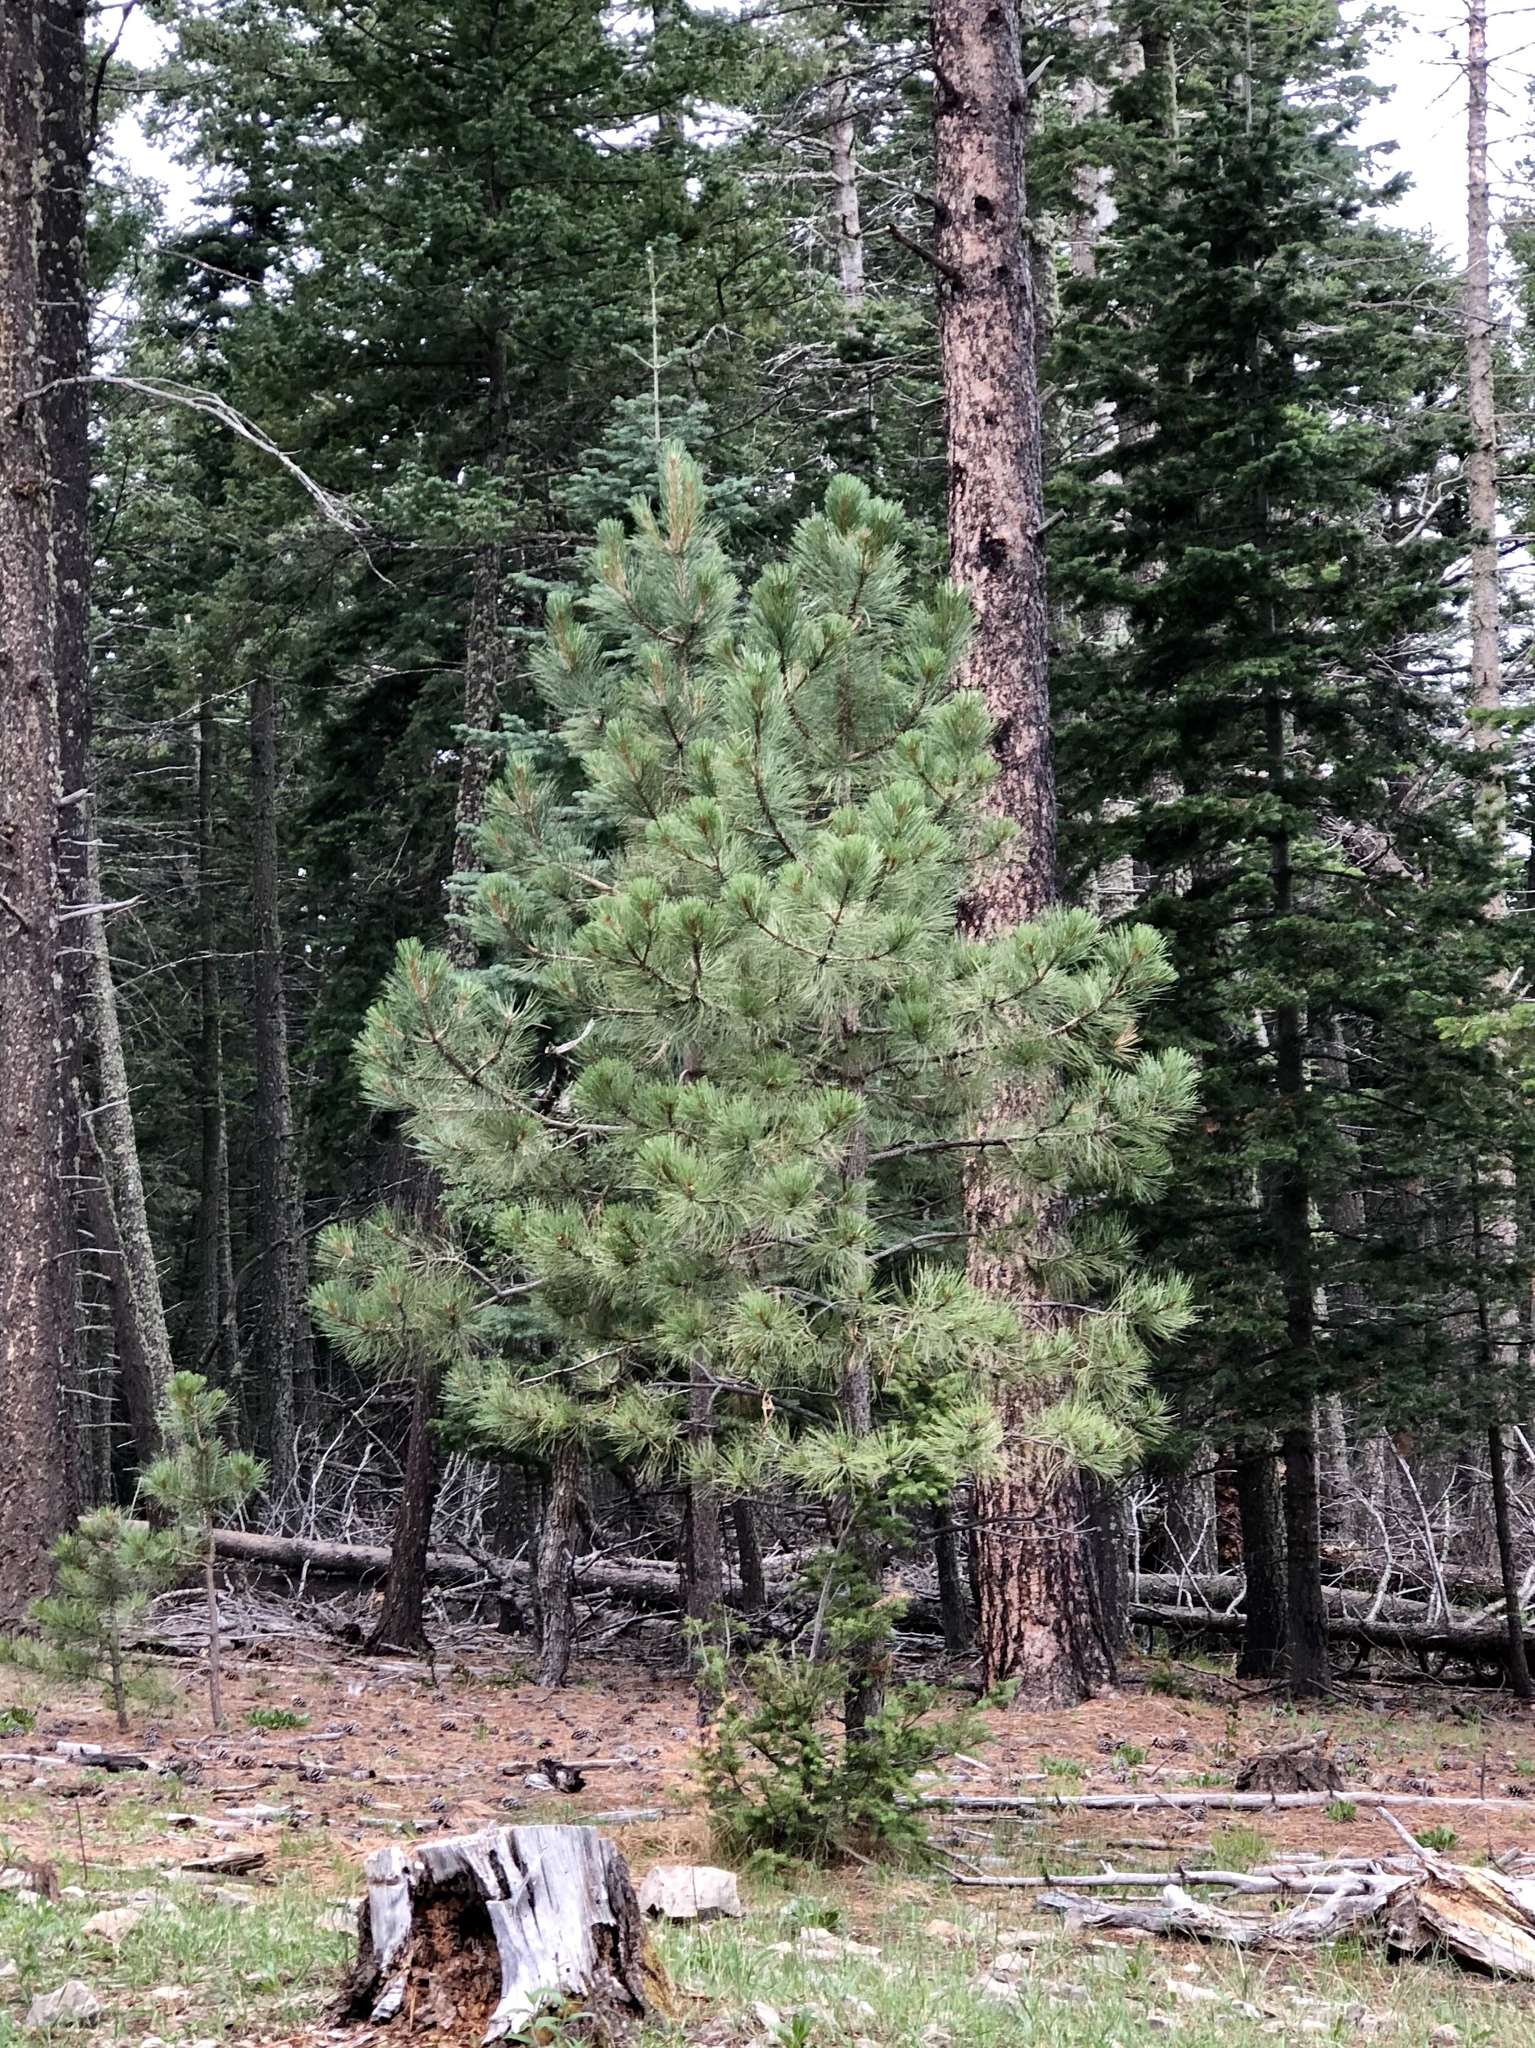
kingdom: Plantae
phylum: Tracheophyta
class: Pinopsida
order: Pinales
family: Pinaceae
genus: Pinus
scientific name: Pinus ponderosa
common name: Western yellow-pine
